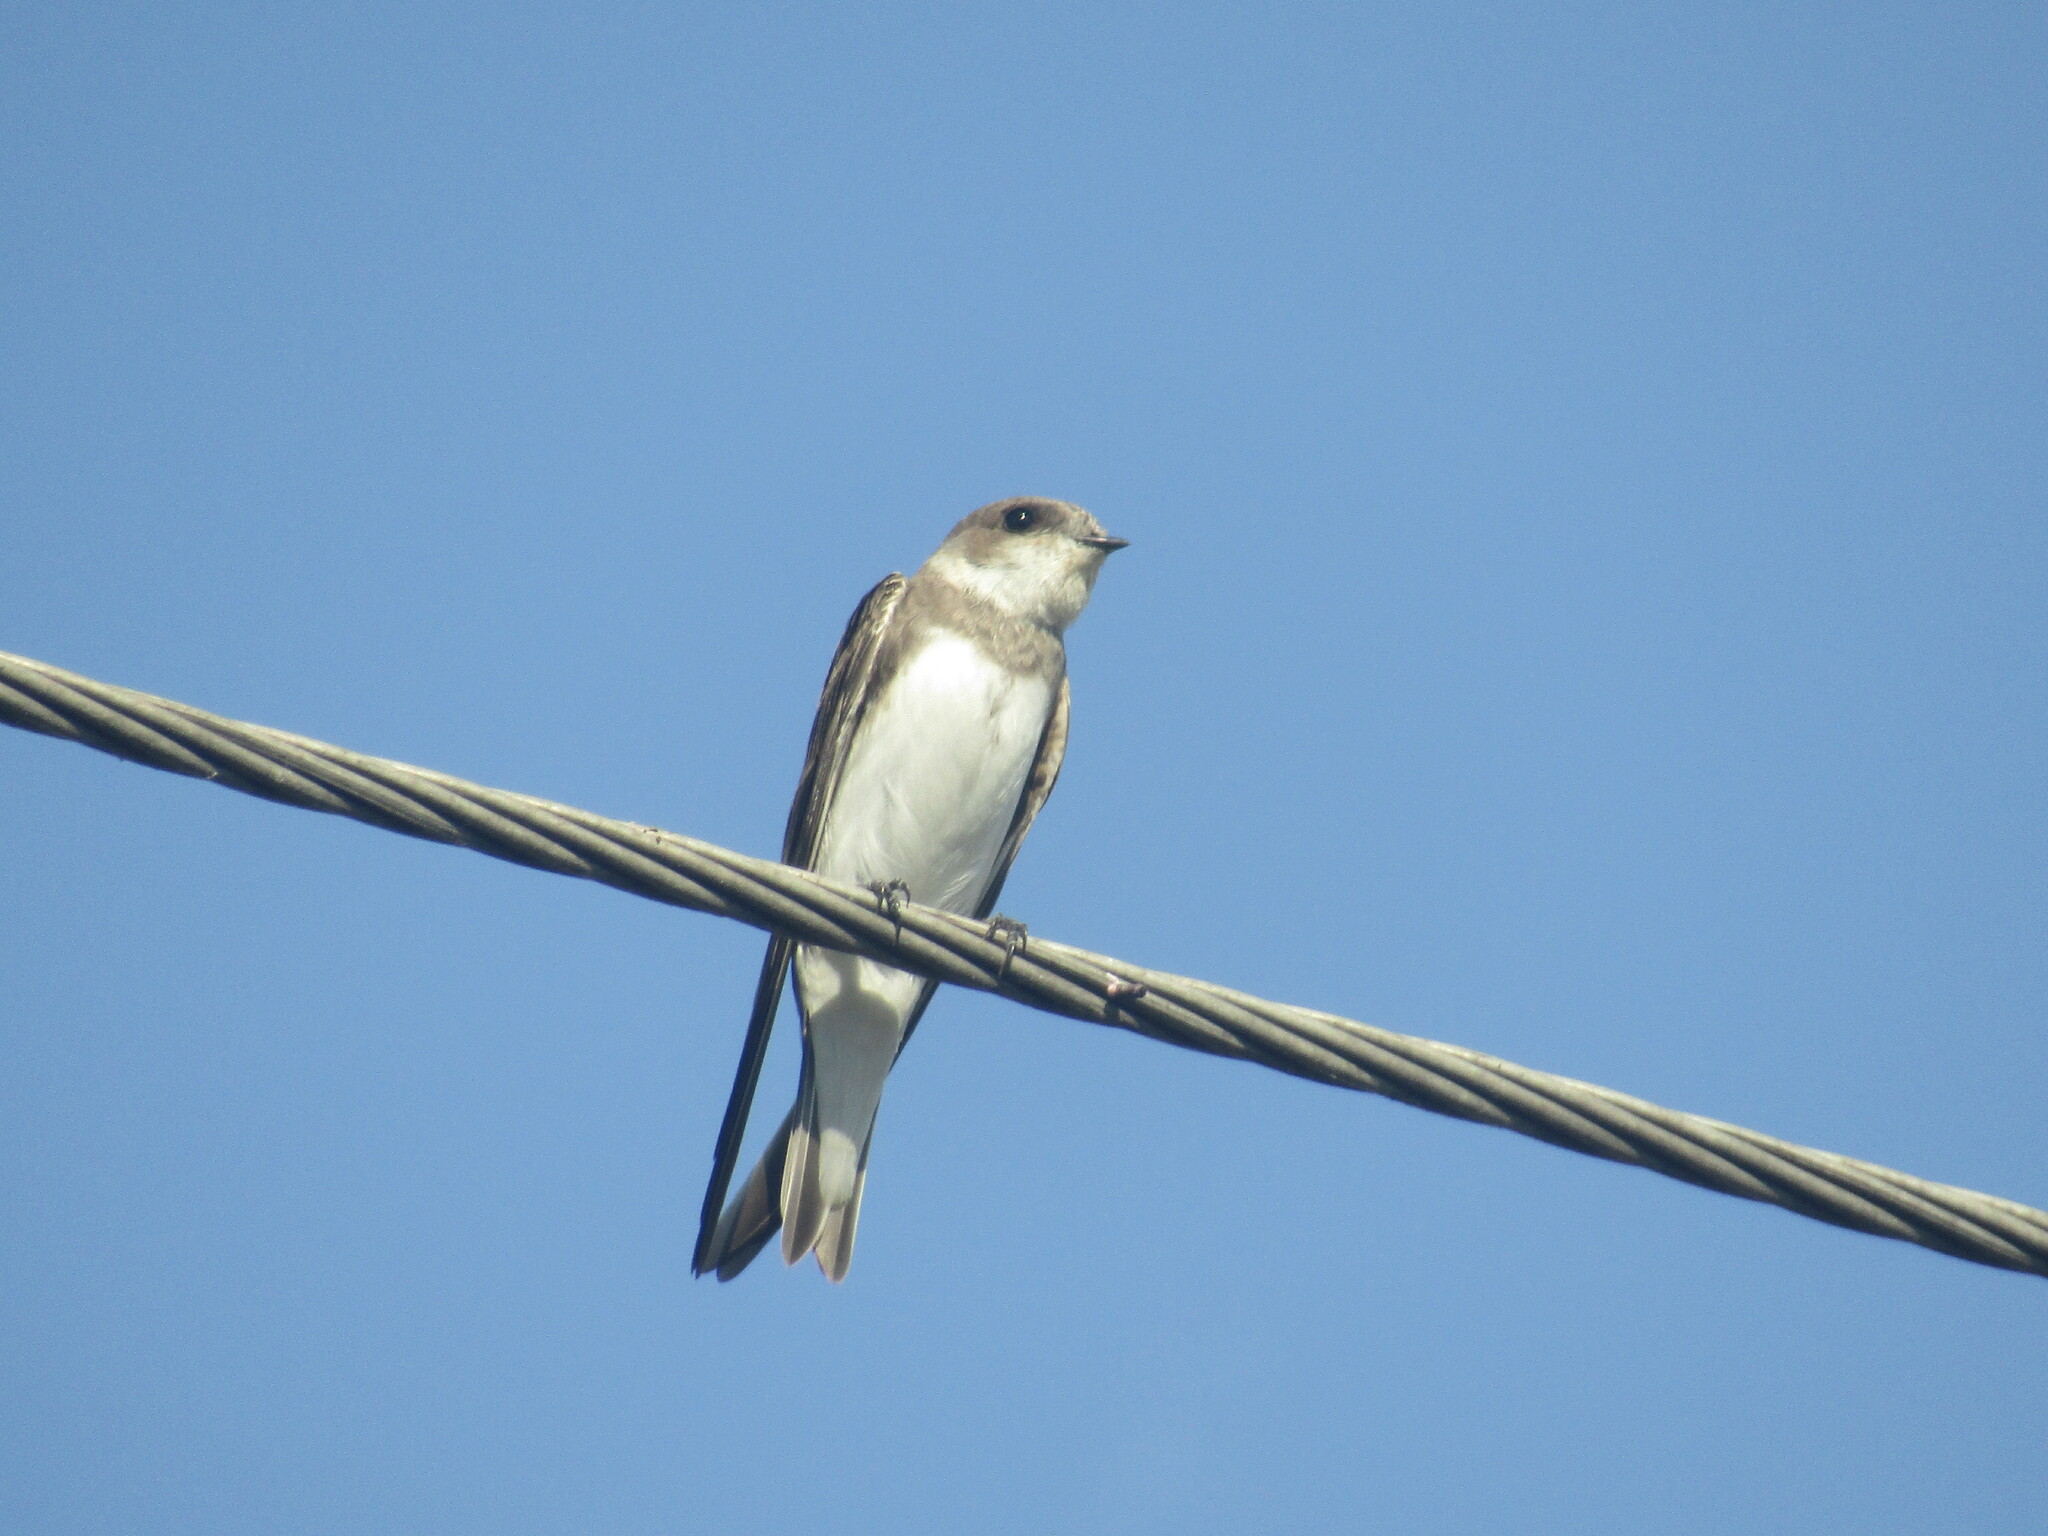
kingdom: Animalia
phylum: Chordata
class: Aves
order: Passeriformes
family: Hirundinidae
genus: Riparia
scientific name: Riparia riparia
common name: Sand martin
